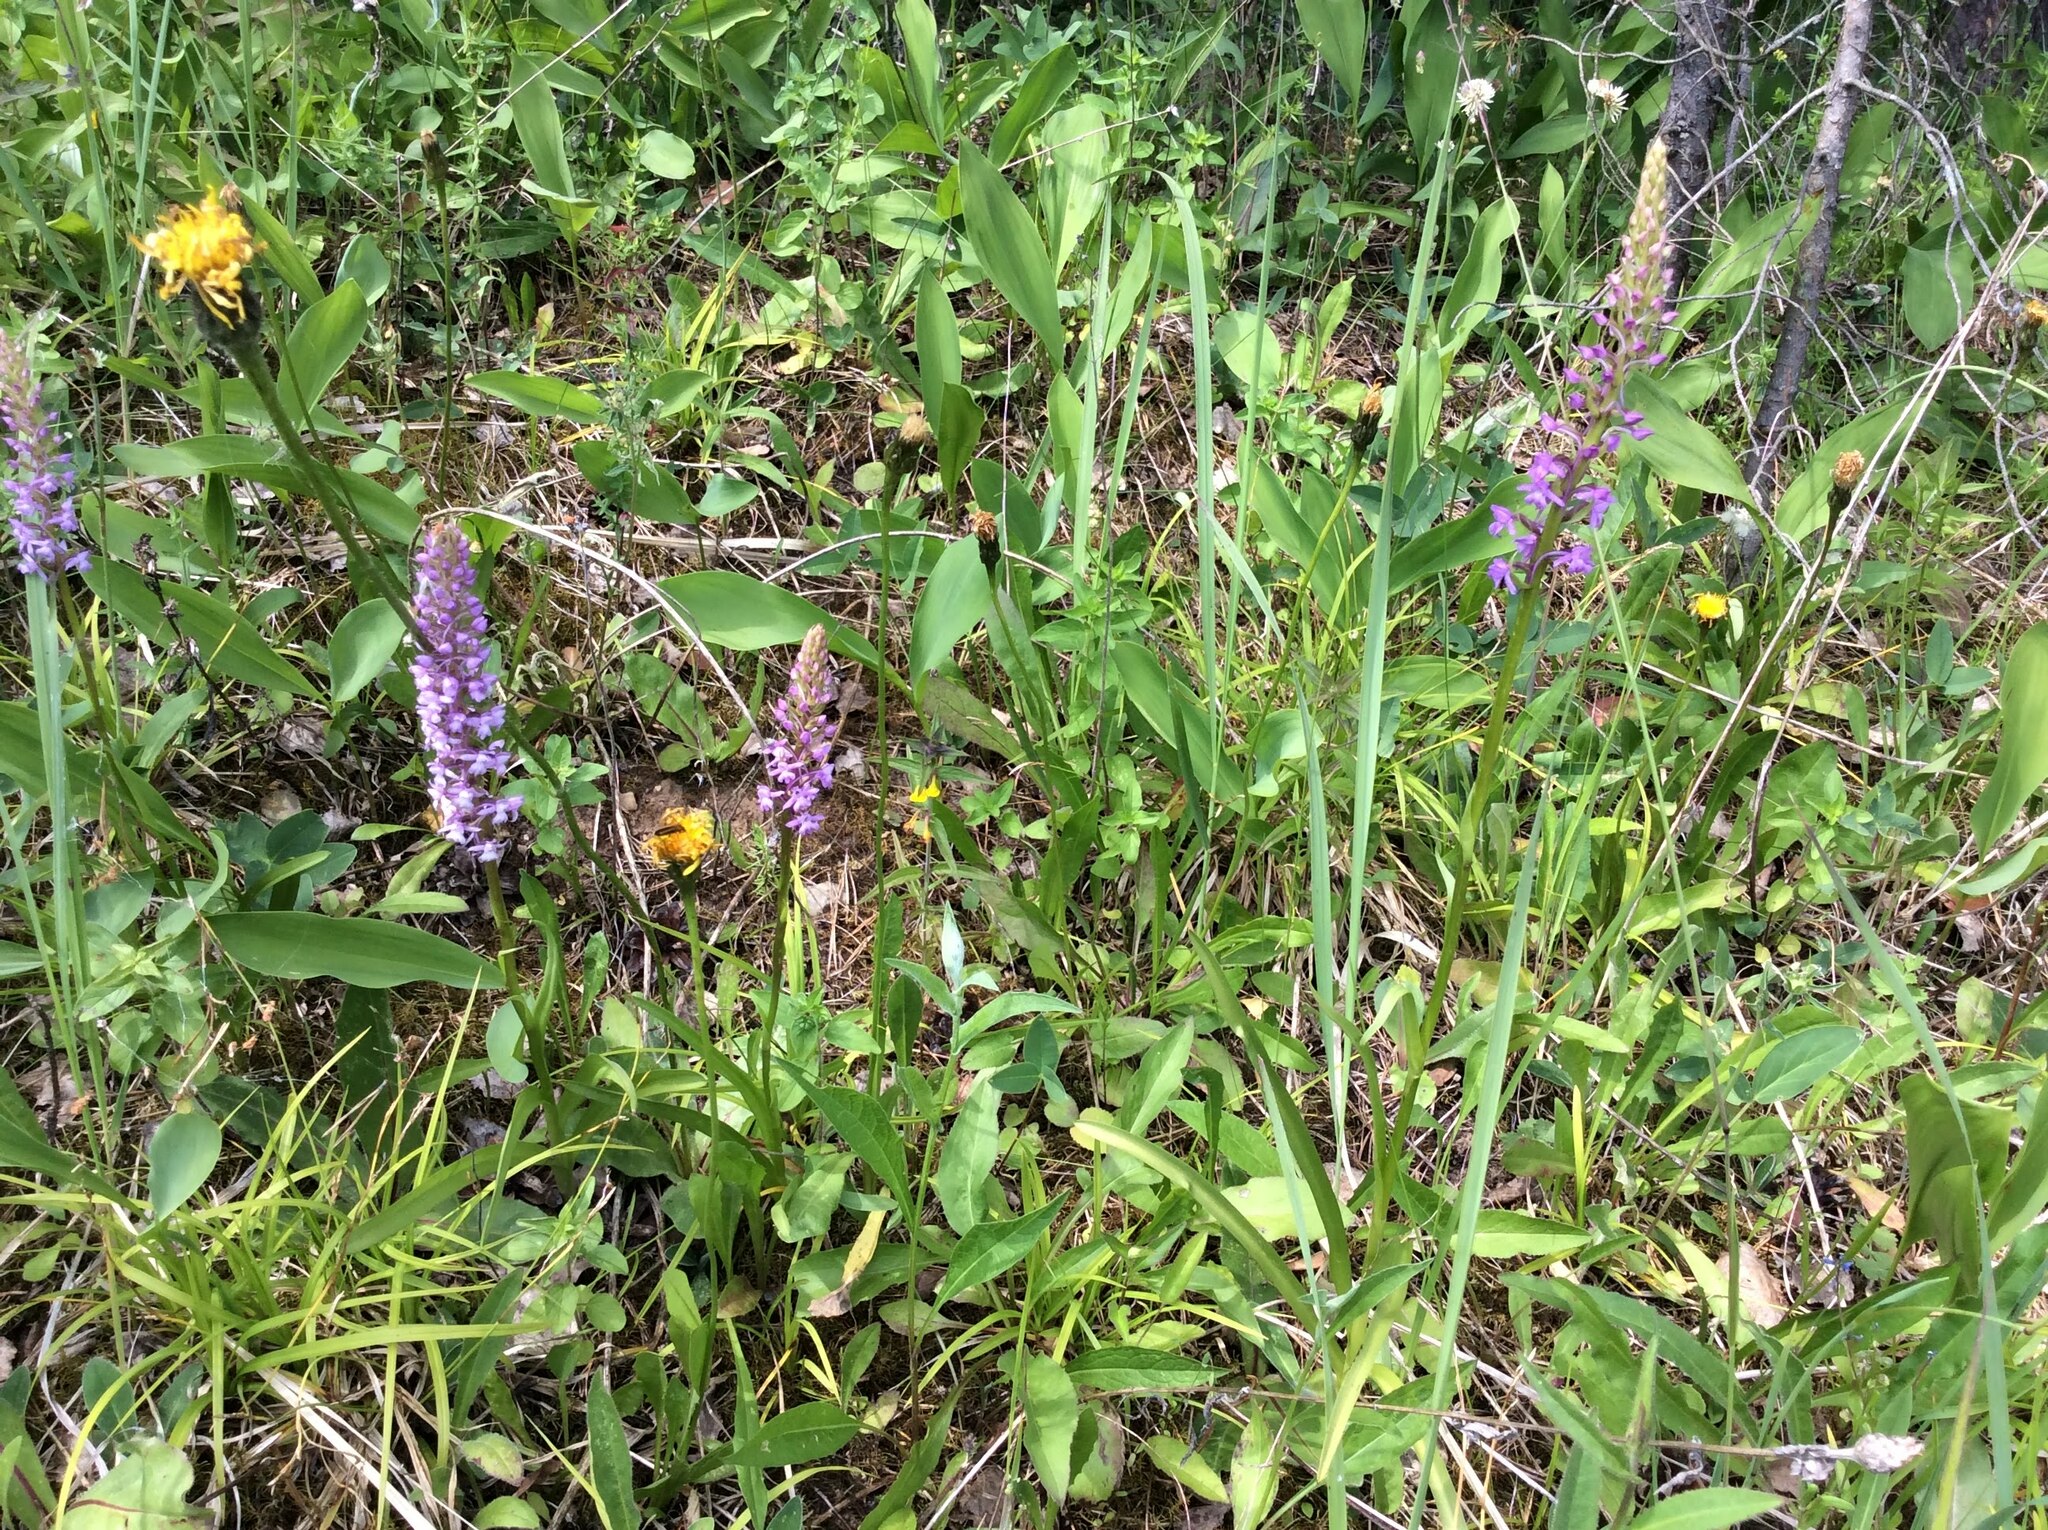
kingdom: Plantae
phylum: Tracheophyta
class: Liliopsida
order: Asparagales
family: Orchidaceae
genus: Gymnadenia
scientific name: Gymnadenia conopsea
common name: Fragrant orchid
